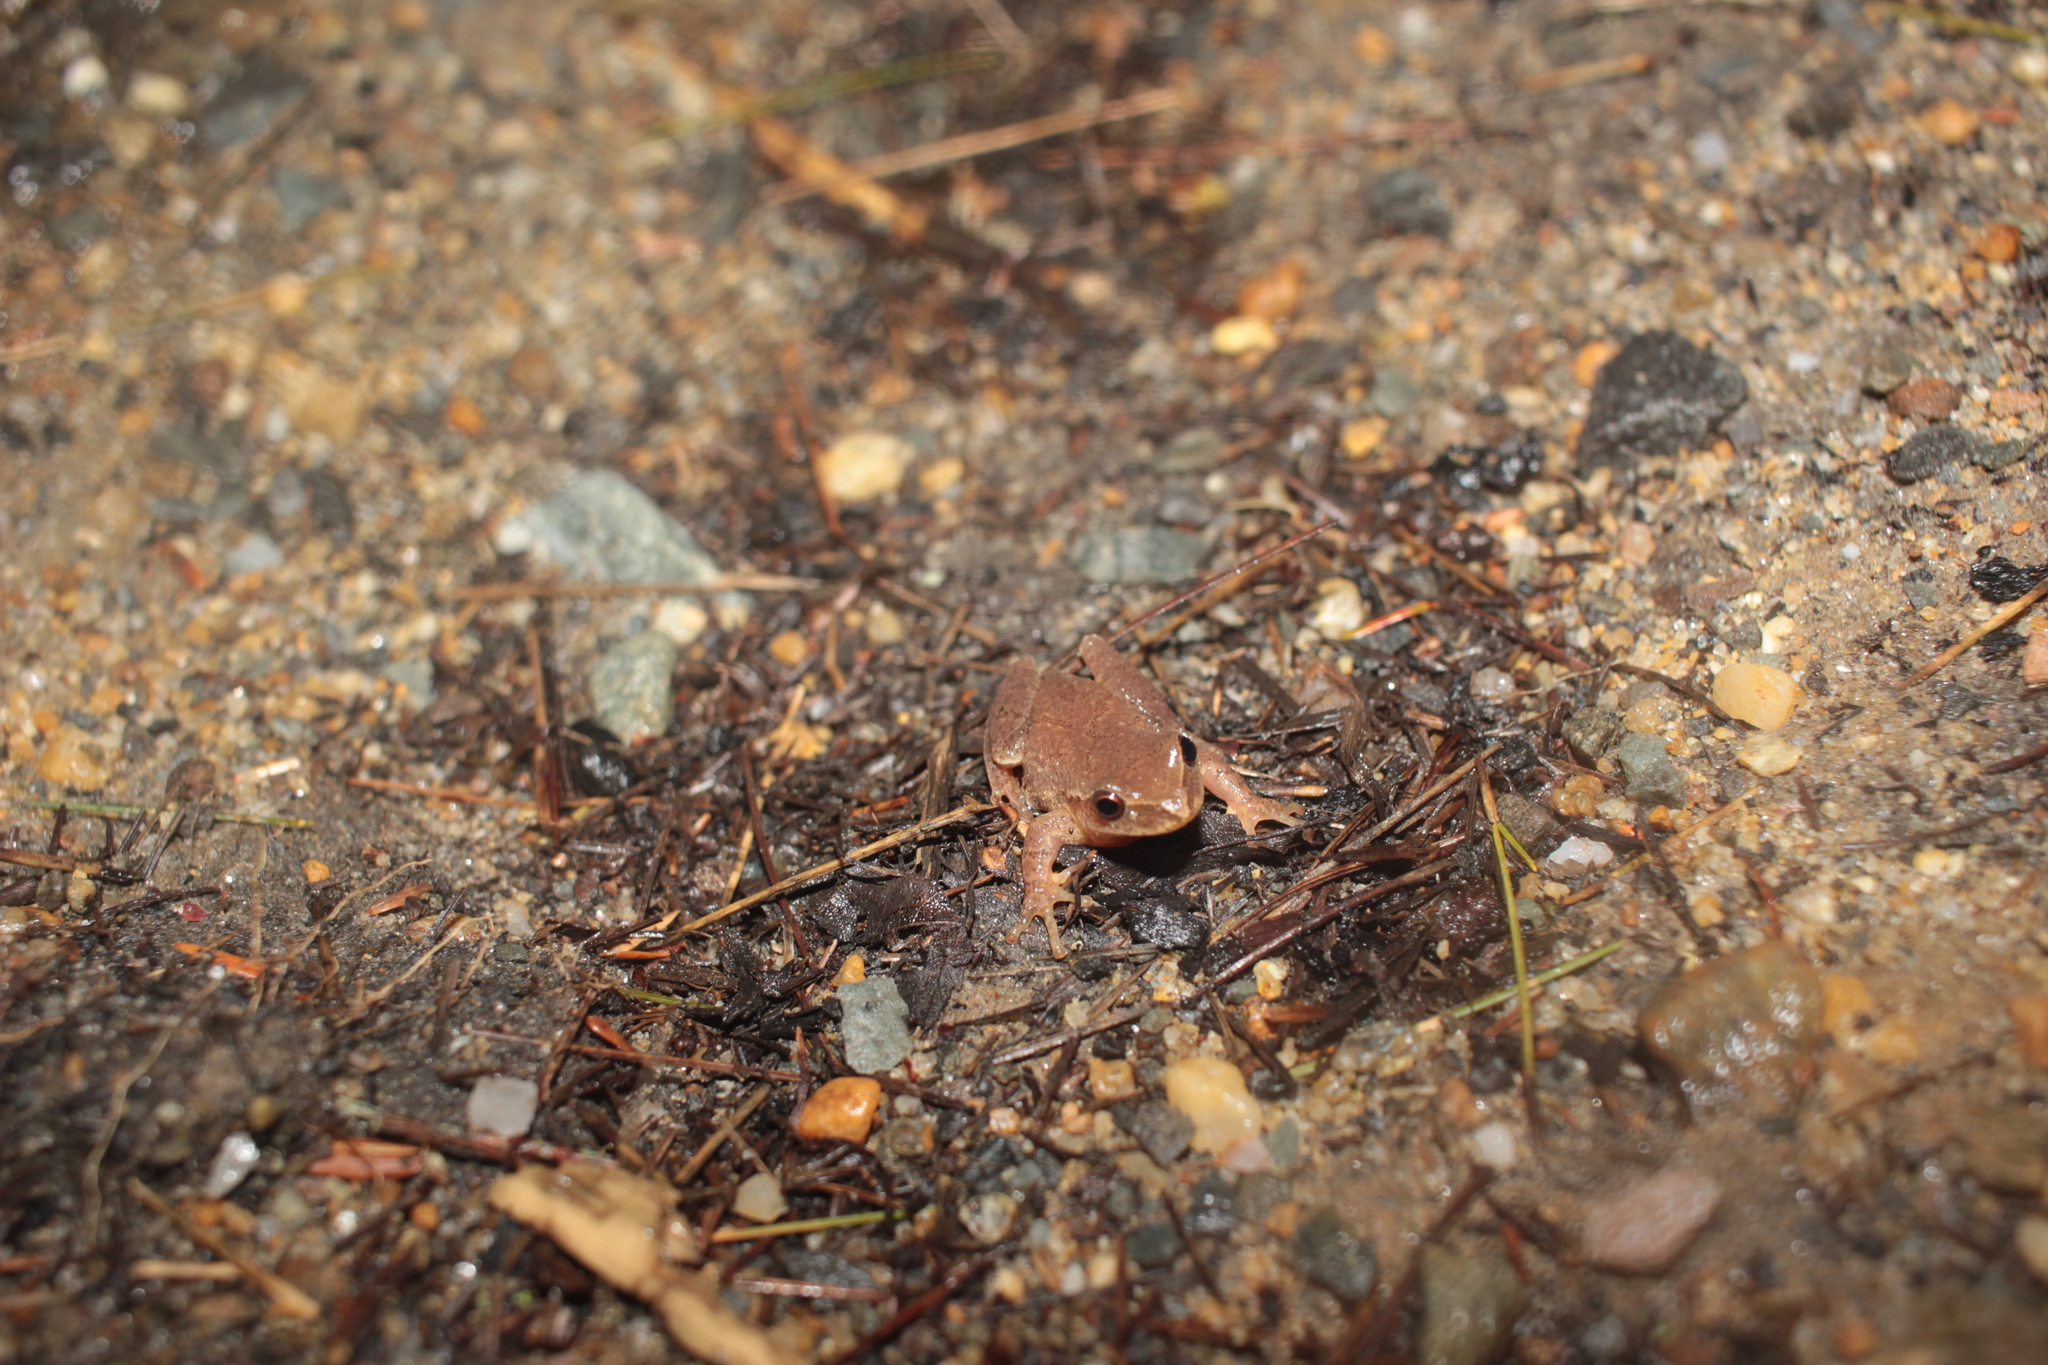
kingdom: Animalia
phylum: Chordata
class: Amphibia
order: Anura
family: Hylidae
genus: Pseudacris
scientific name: Pseudacris crucifer
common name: Spring peeper
